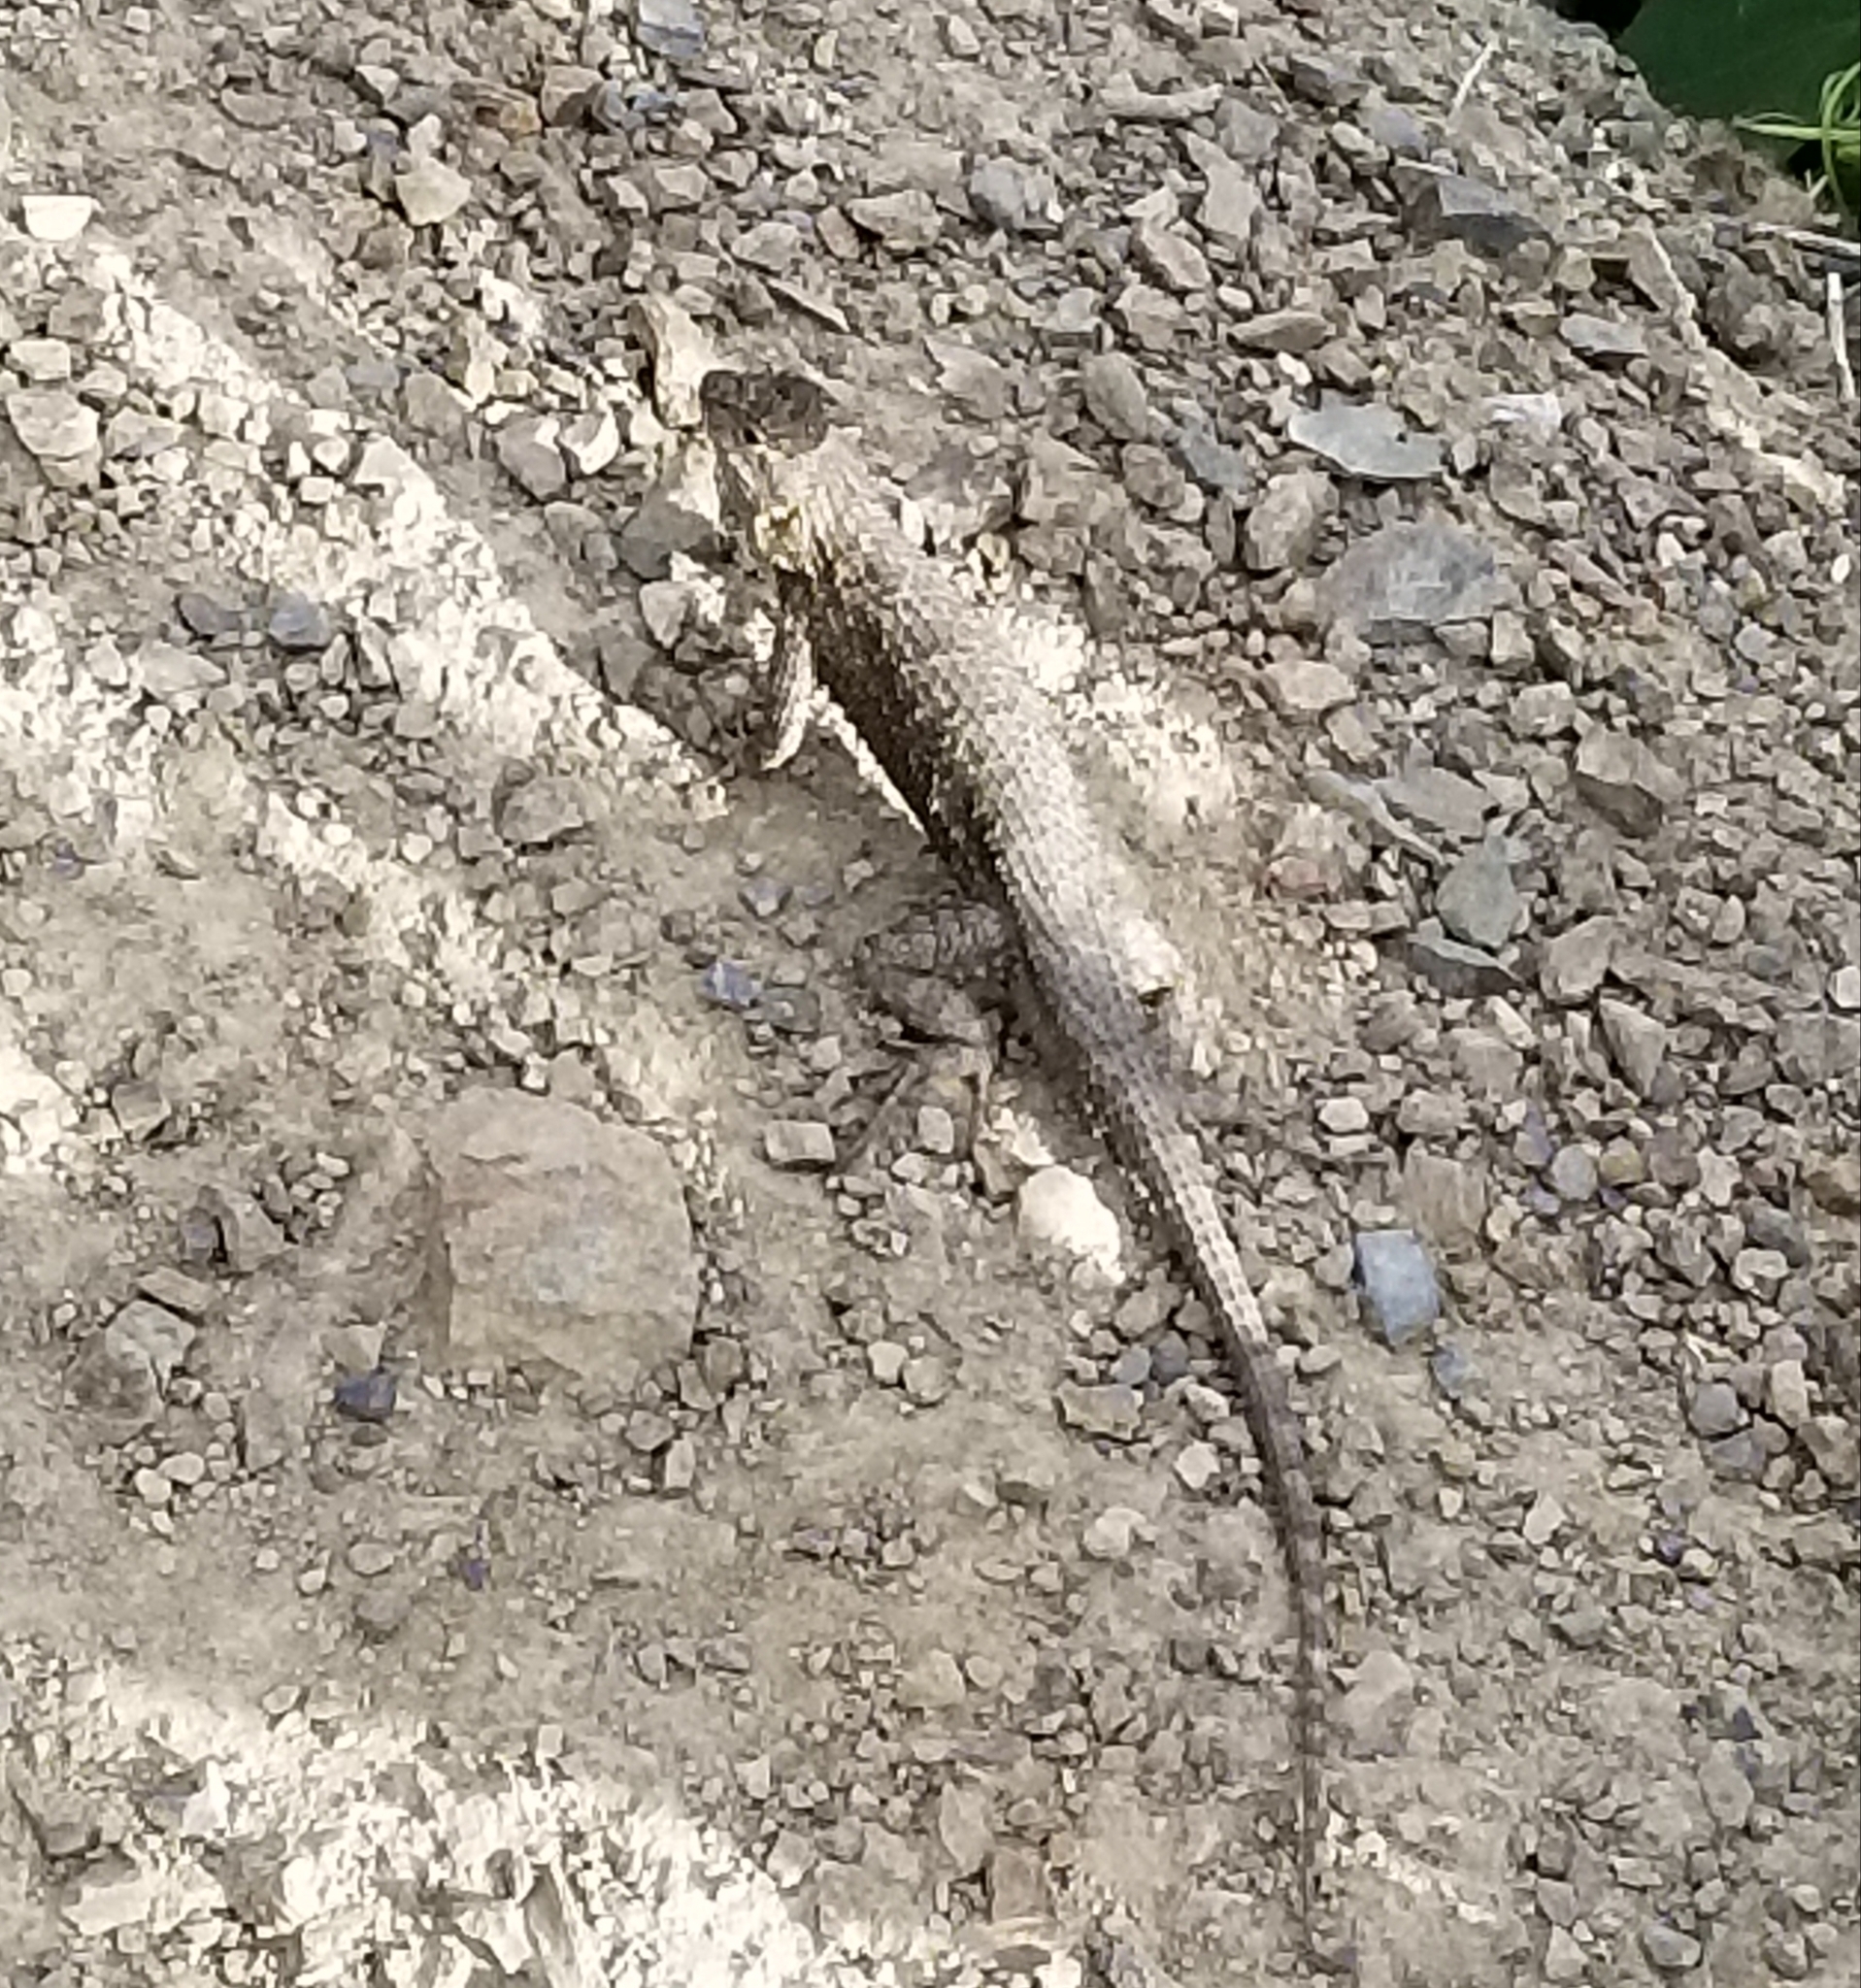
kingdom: Animalia
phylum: Chordata
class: Squamata
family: Phrynosomatidae
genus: Sceloporus
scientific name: Sceloporus occidentalis
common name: Western fence lizard
